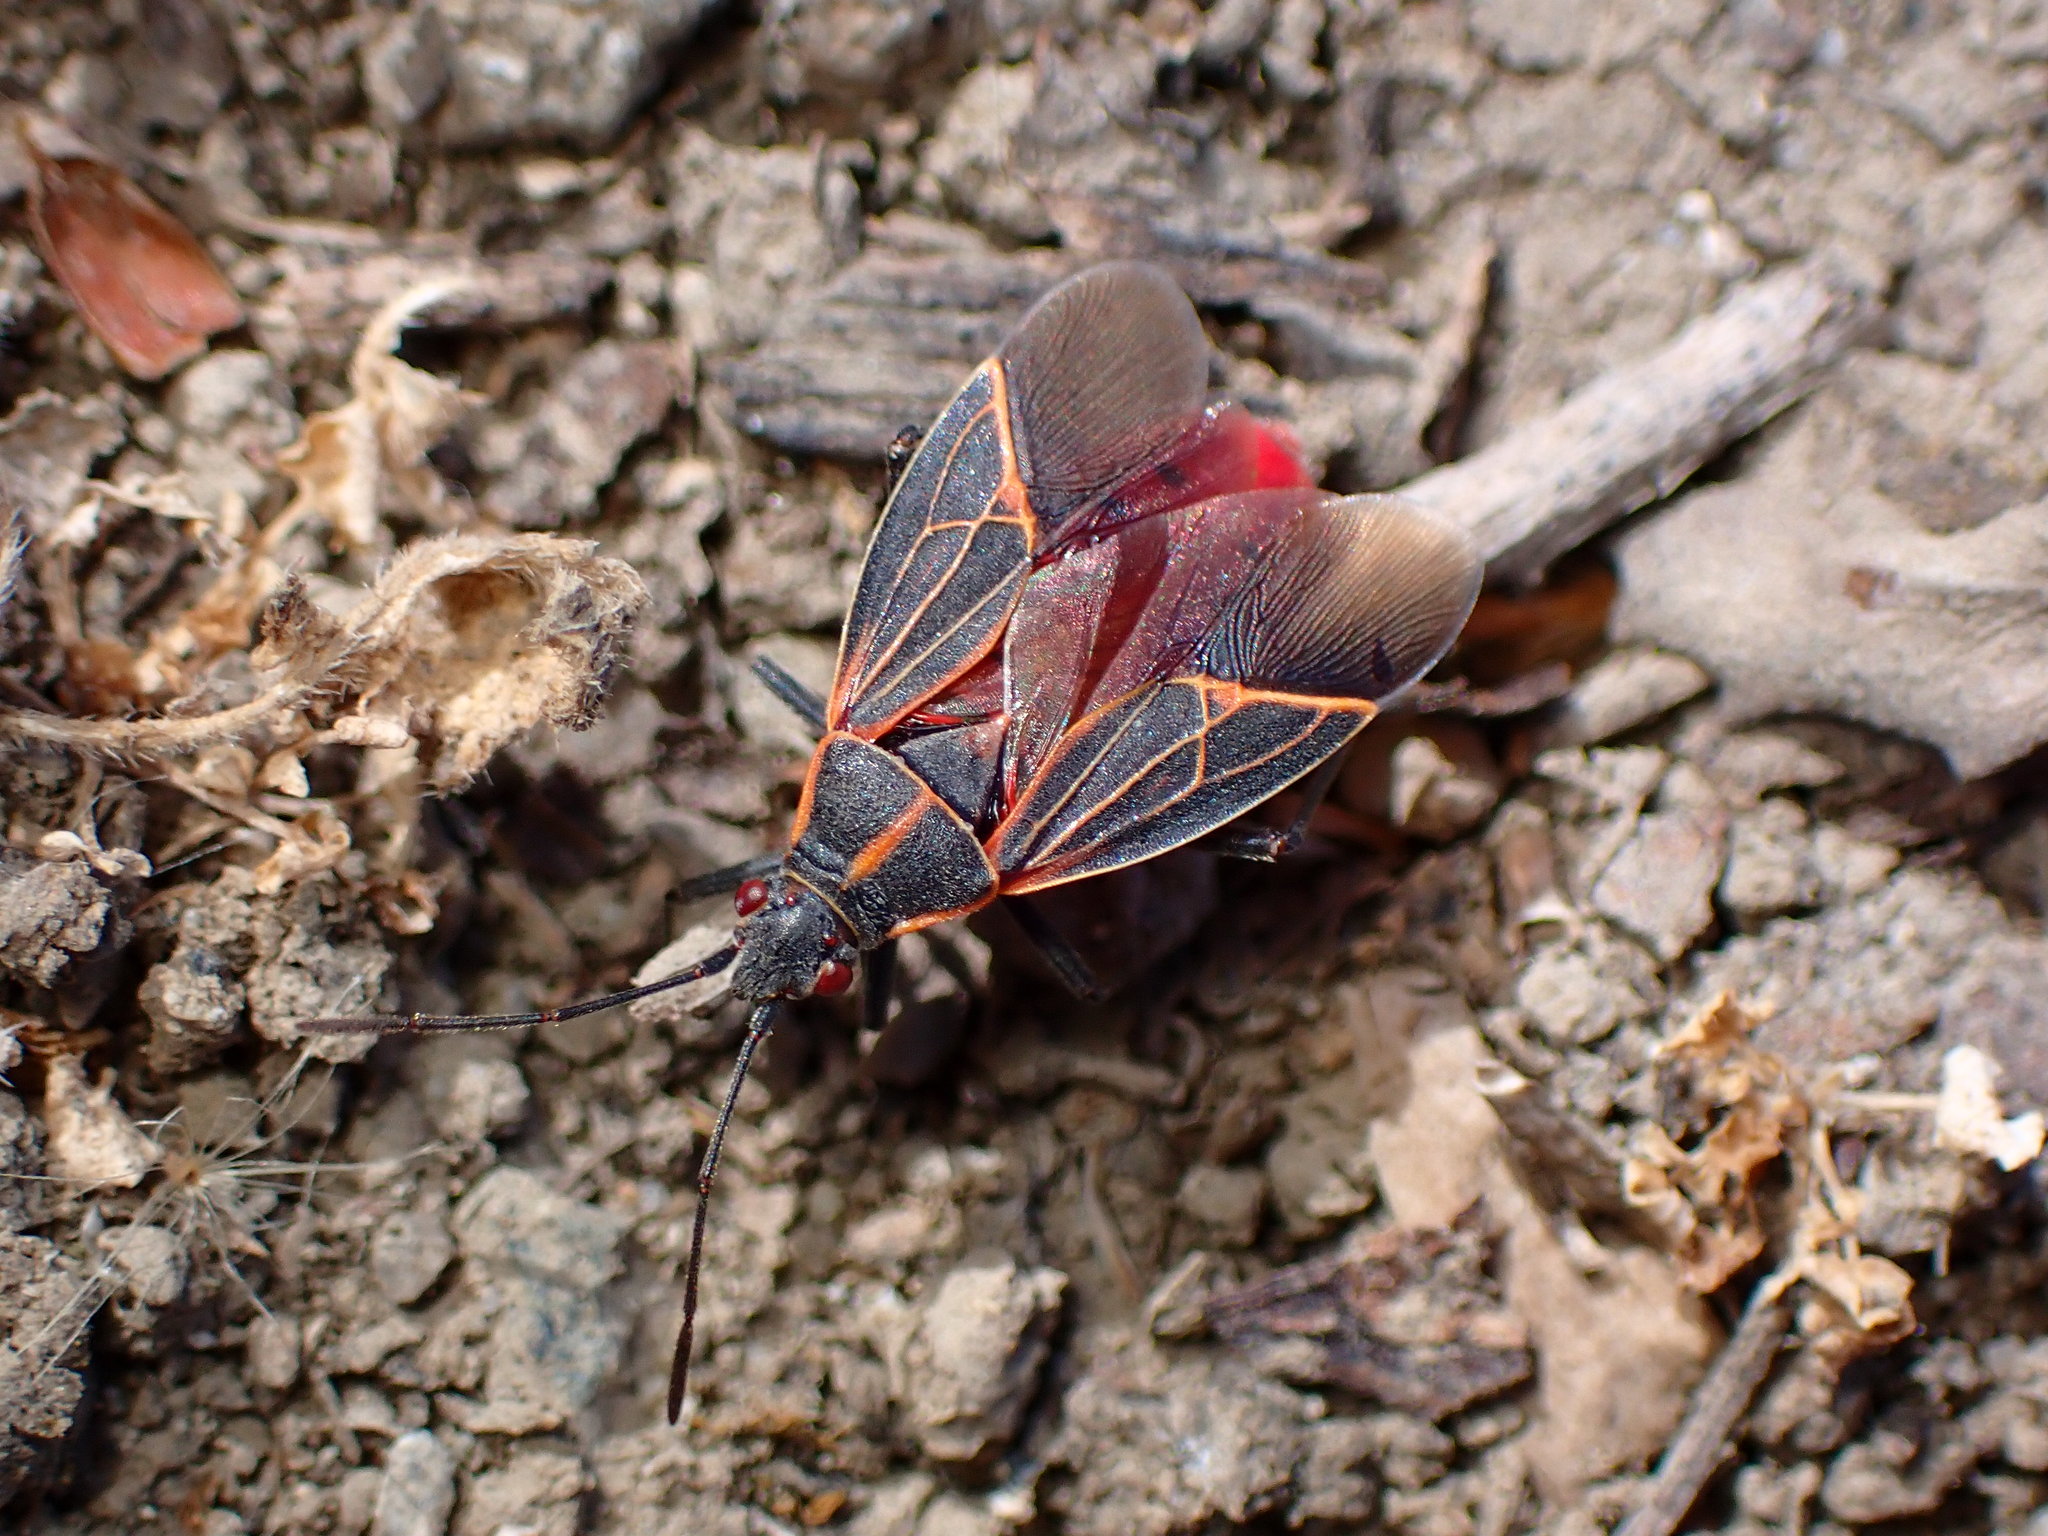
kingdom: Animalia
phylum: Arthropoda
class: Insecta
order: Hemiptera
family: Rhopalidae
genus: Boisea
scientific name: Boisea rubrolineata
